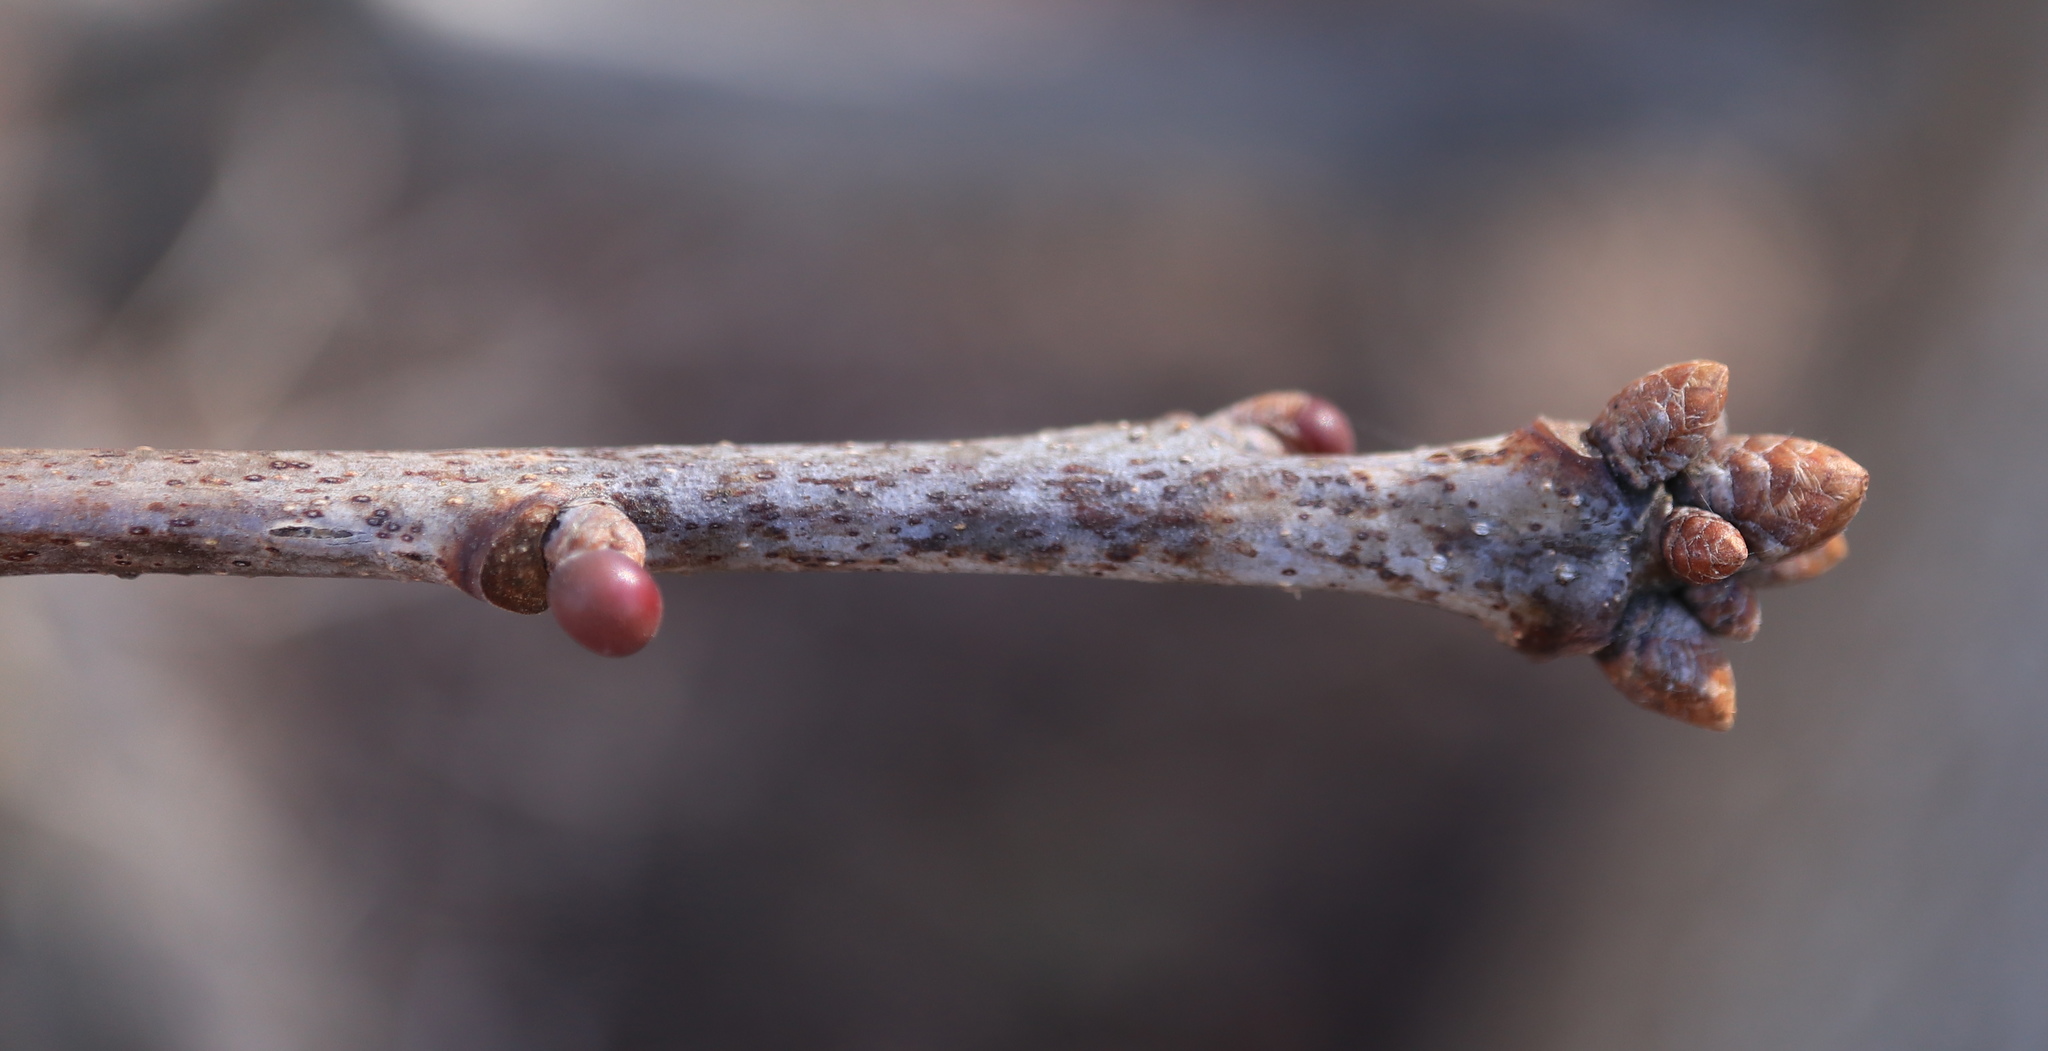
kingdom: Animalia
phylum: Arthropoda
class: Insecta
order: Hymenoptera
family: Cynipidae
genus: Neuroterus
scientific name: Neuroterus
